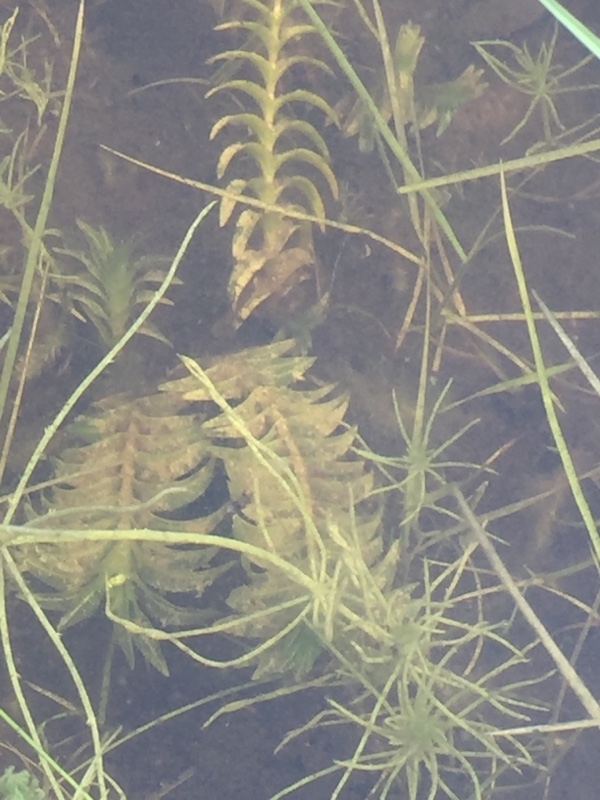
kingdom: Plantae
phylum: Tracheophyta
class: Liliopsida
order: Alismatales
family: Potamogetonaceae
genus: Groenlandia
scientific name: Groenlandia densa
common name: Opposite-leaved pondweed
